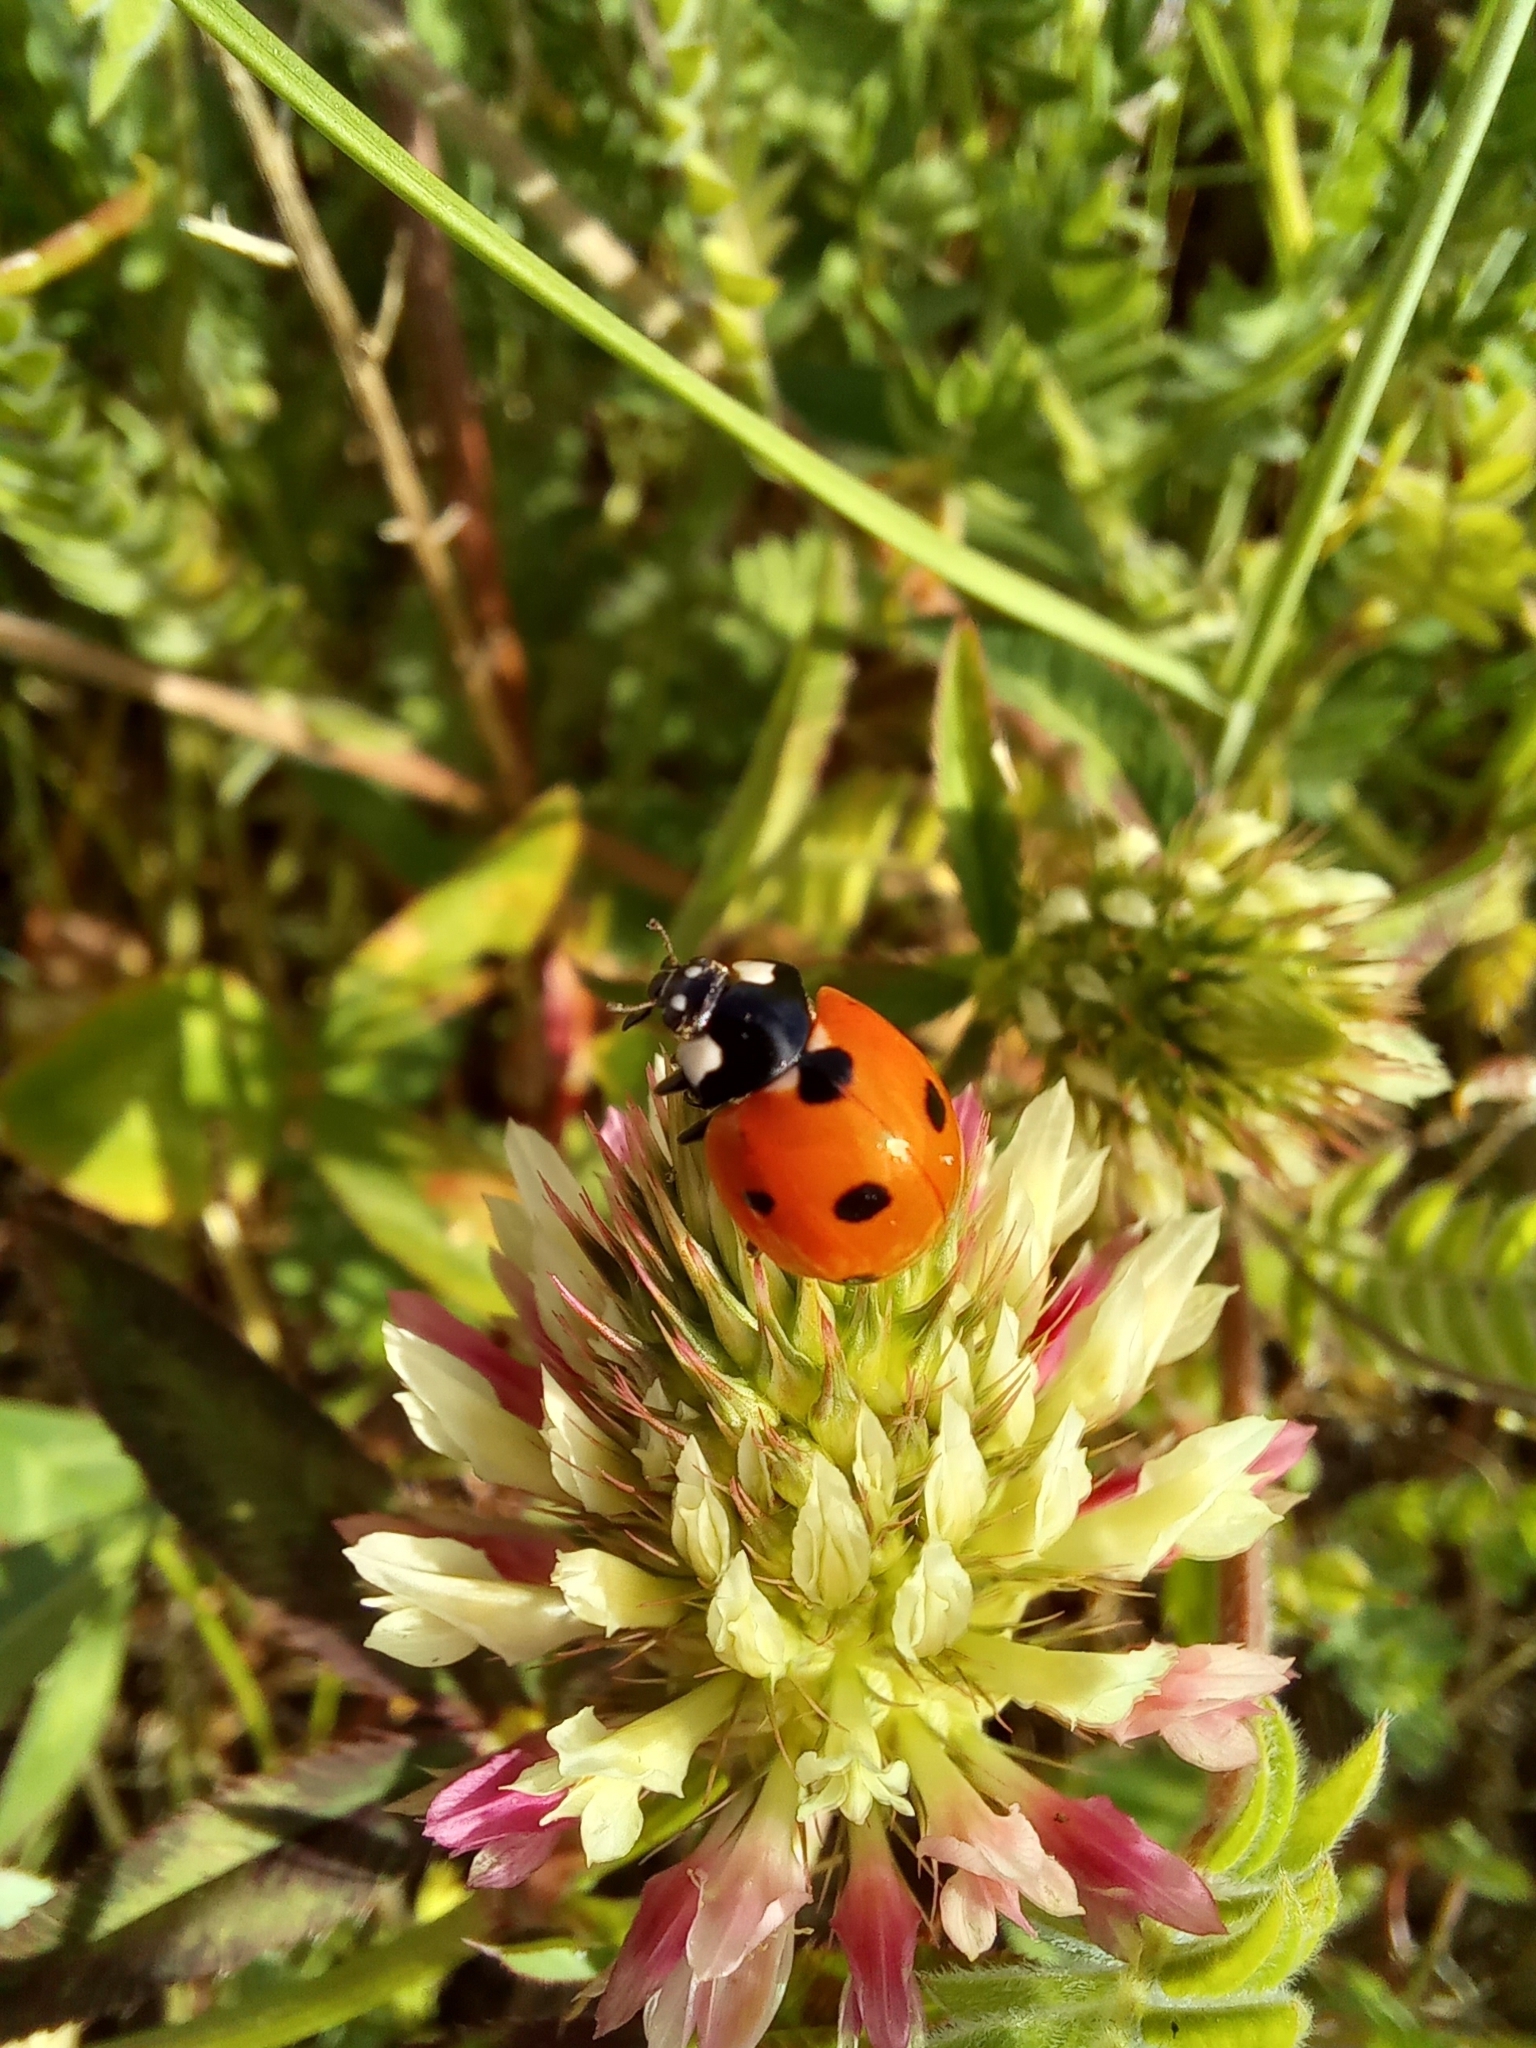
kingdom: Animalia
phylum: Arthropoda
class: Insecta
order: Coleoptera
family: Coccinellidae
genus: Coccinella
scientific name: Coccinella septempunctata
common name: Sevenspotted lady beetle
